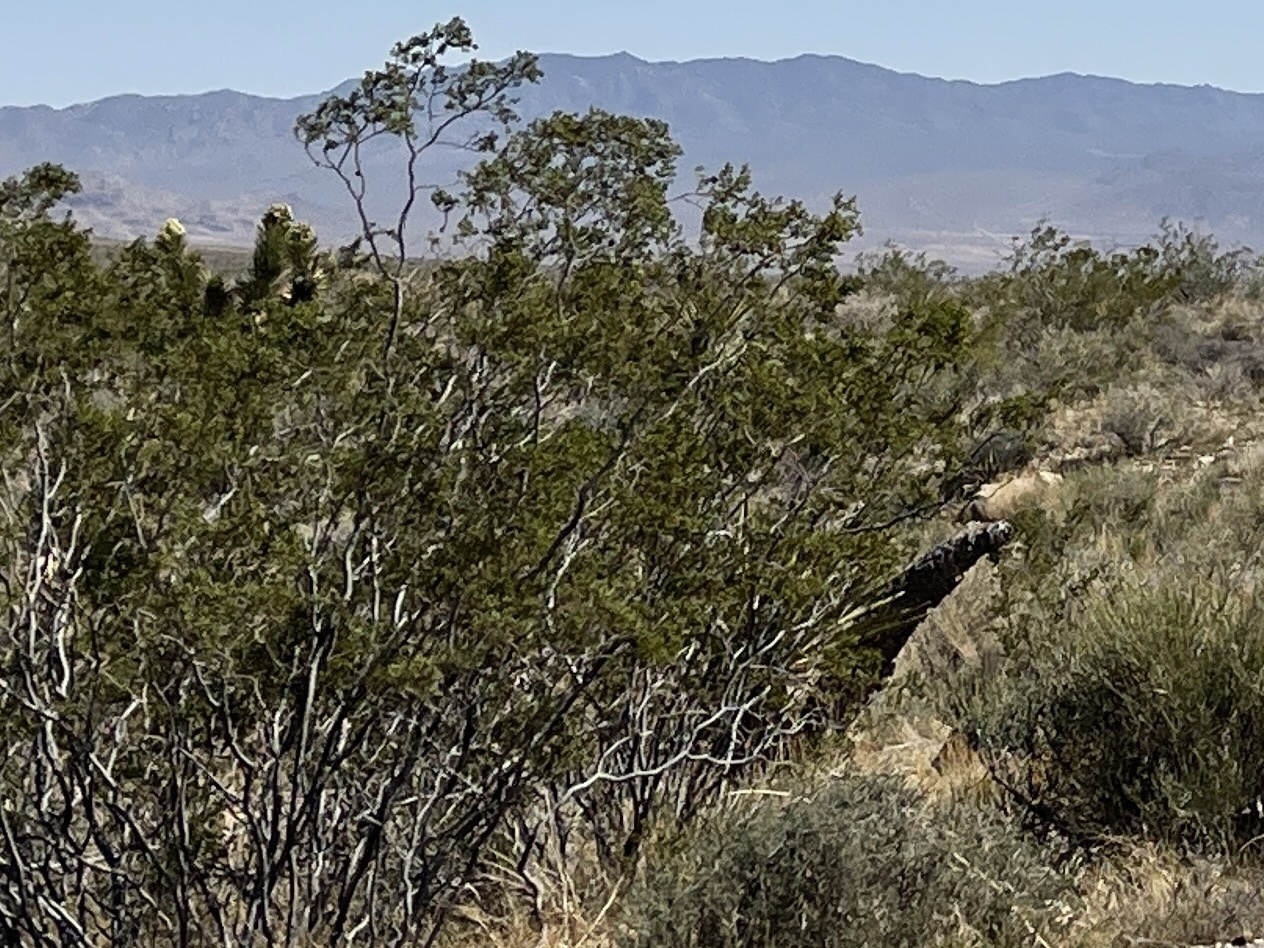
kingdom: Plantae
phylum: Tracheophyta
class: Magnoliopsida
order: Zygophyllales
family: Zygophyllaceae
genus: Larrea
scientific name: Larrea tridentata
